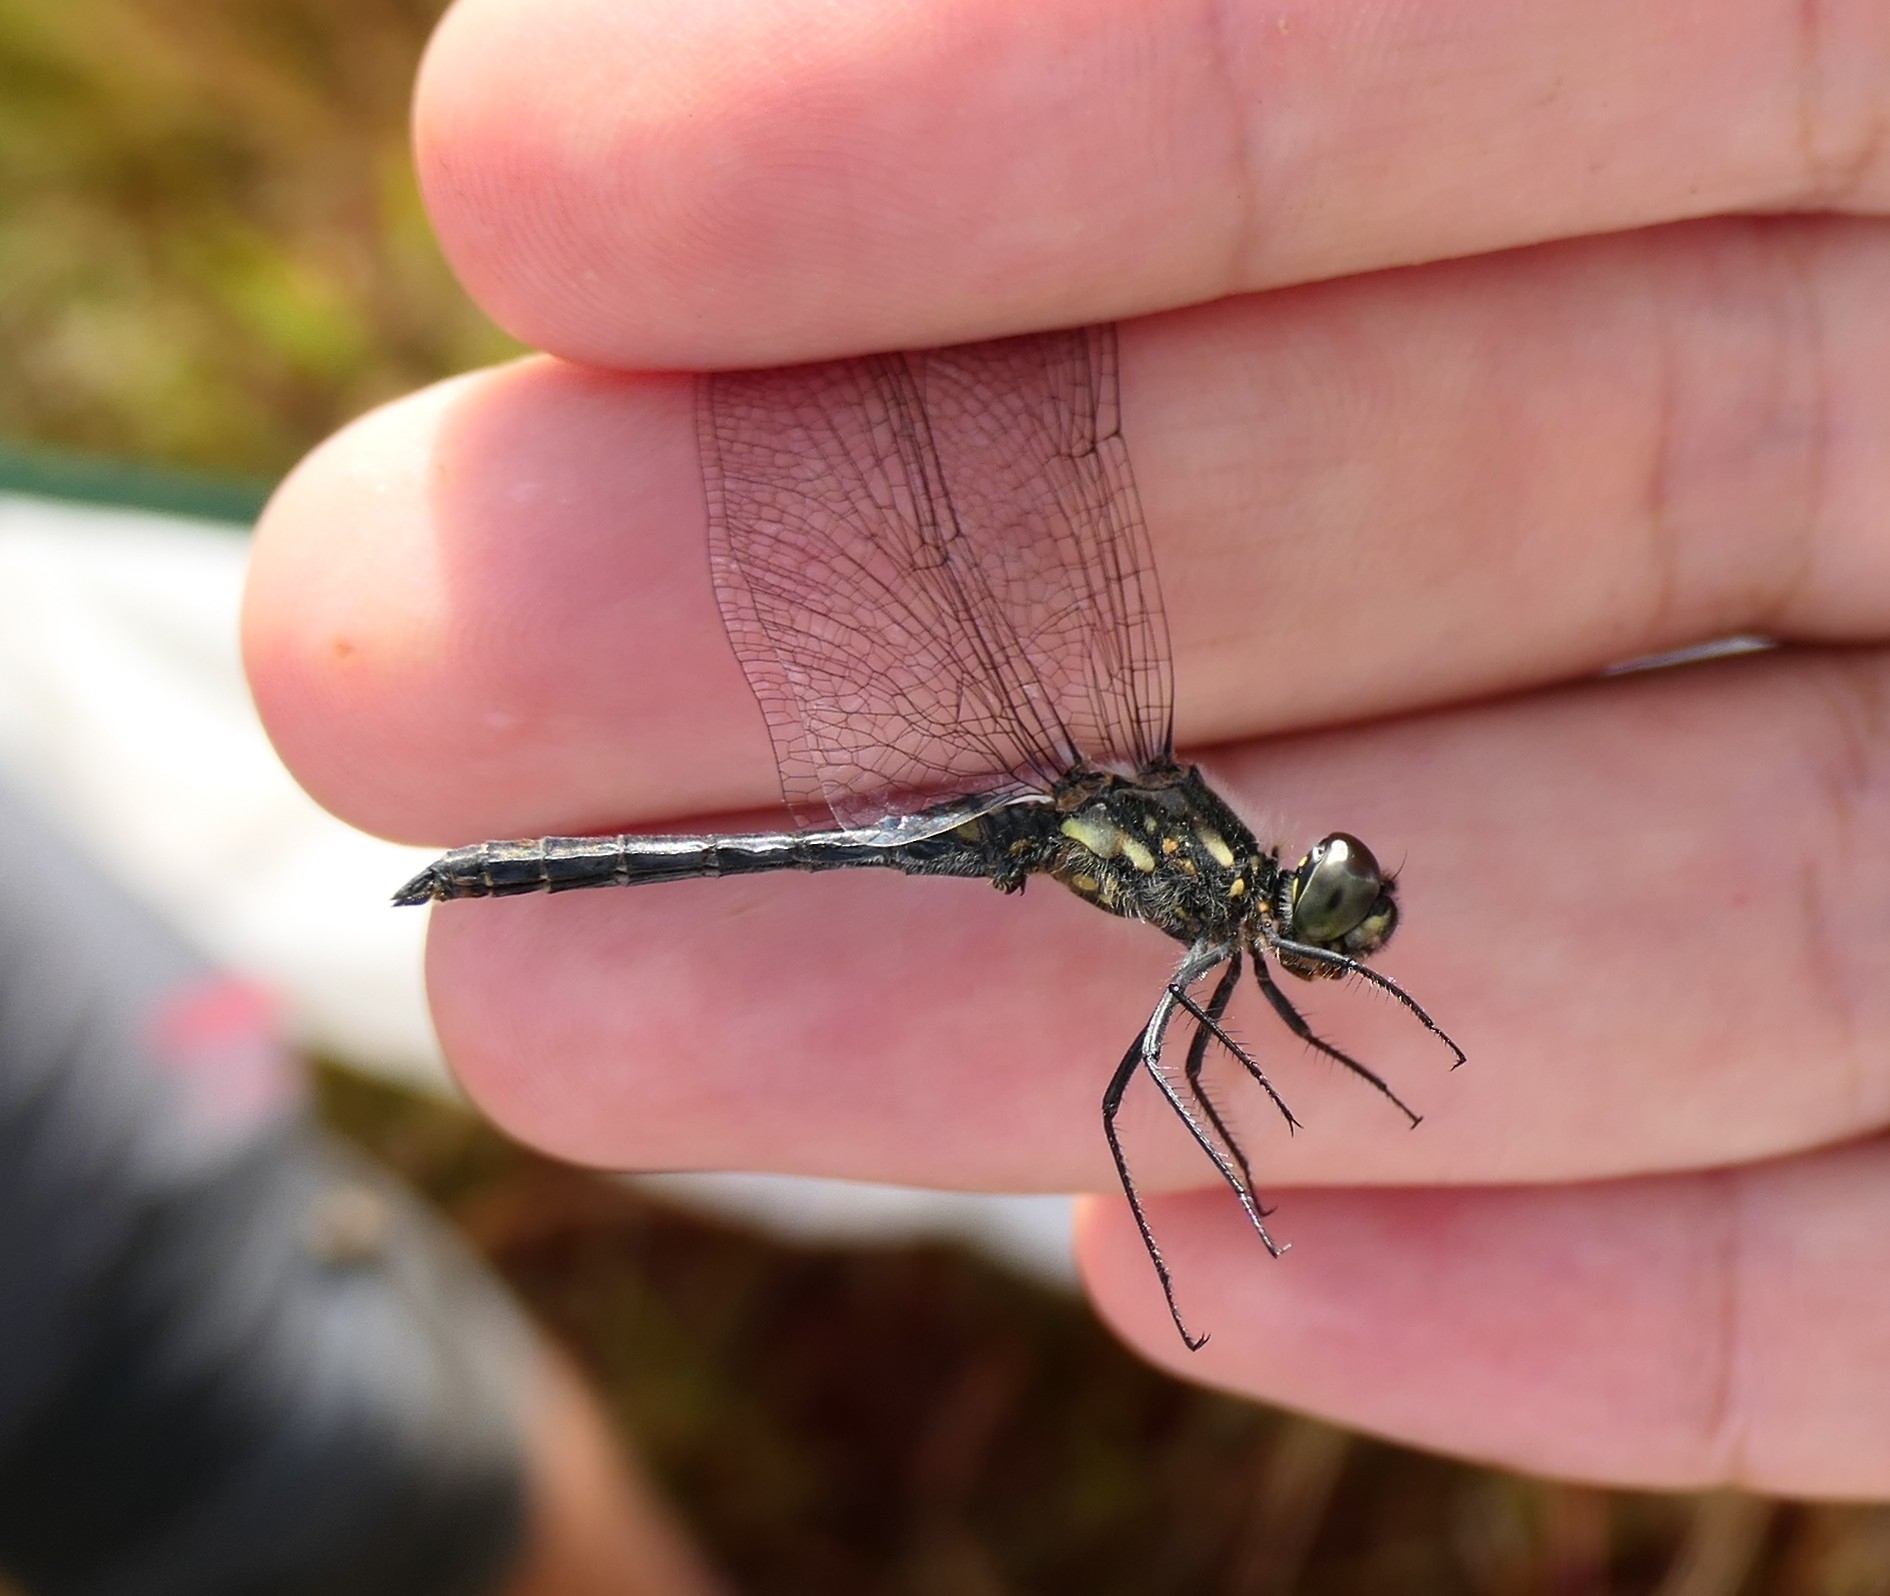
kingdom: Animalia
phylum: Arthropoda
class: Insecta
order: Odonata
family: Libellulidae
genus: Sympetrum
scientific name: Sympetrum danae
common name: Black darter
